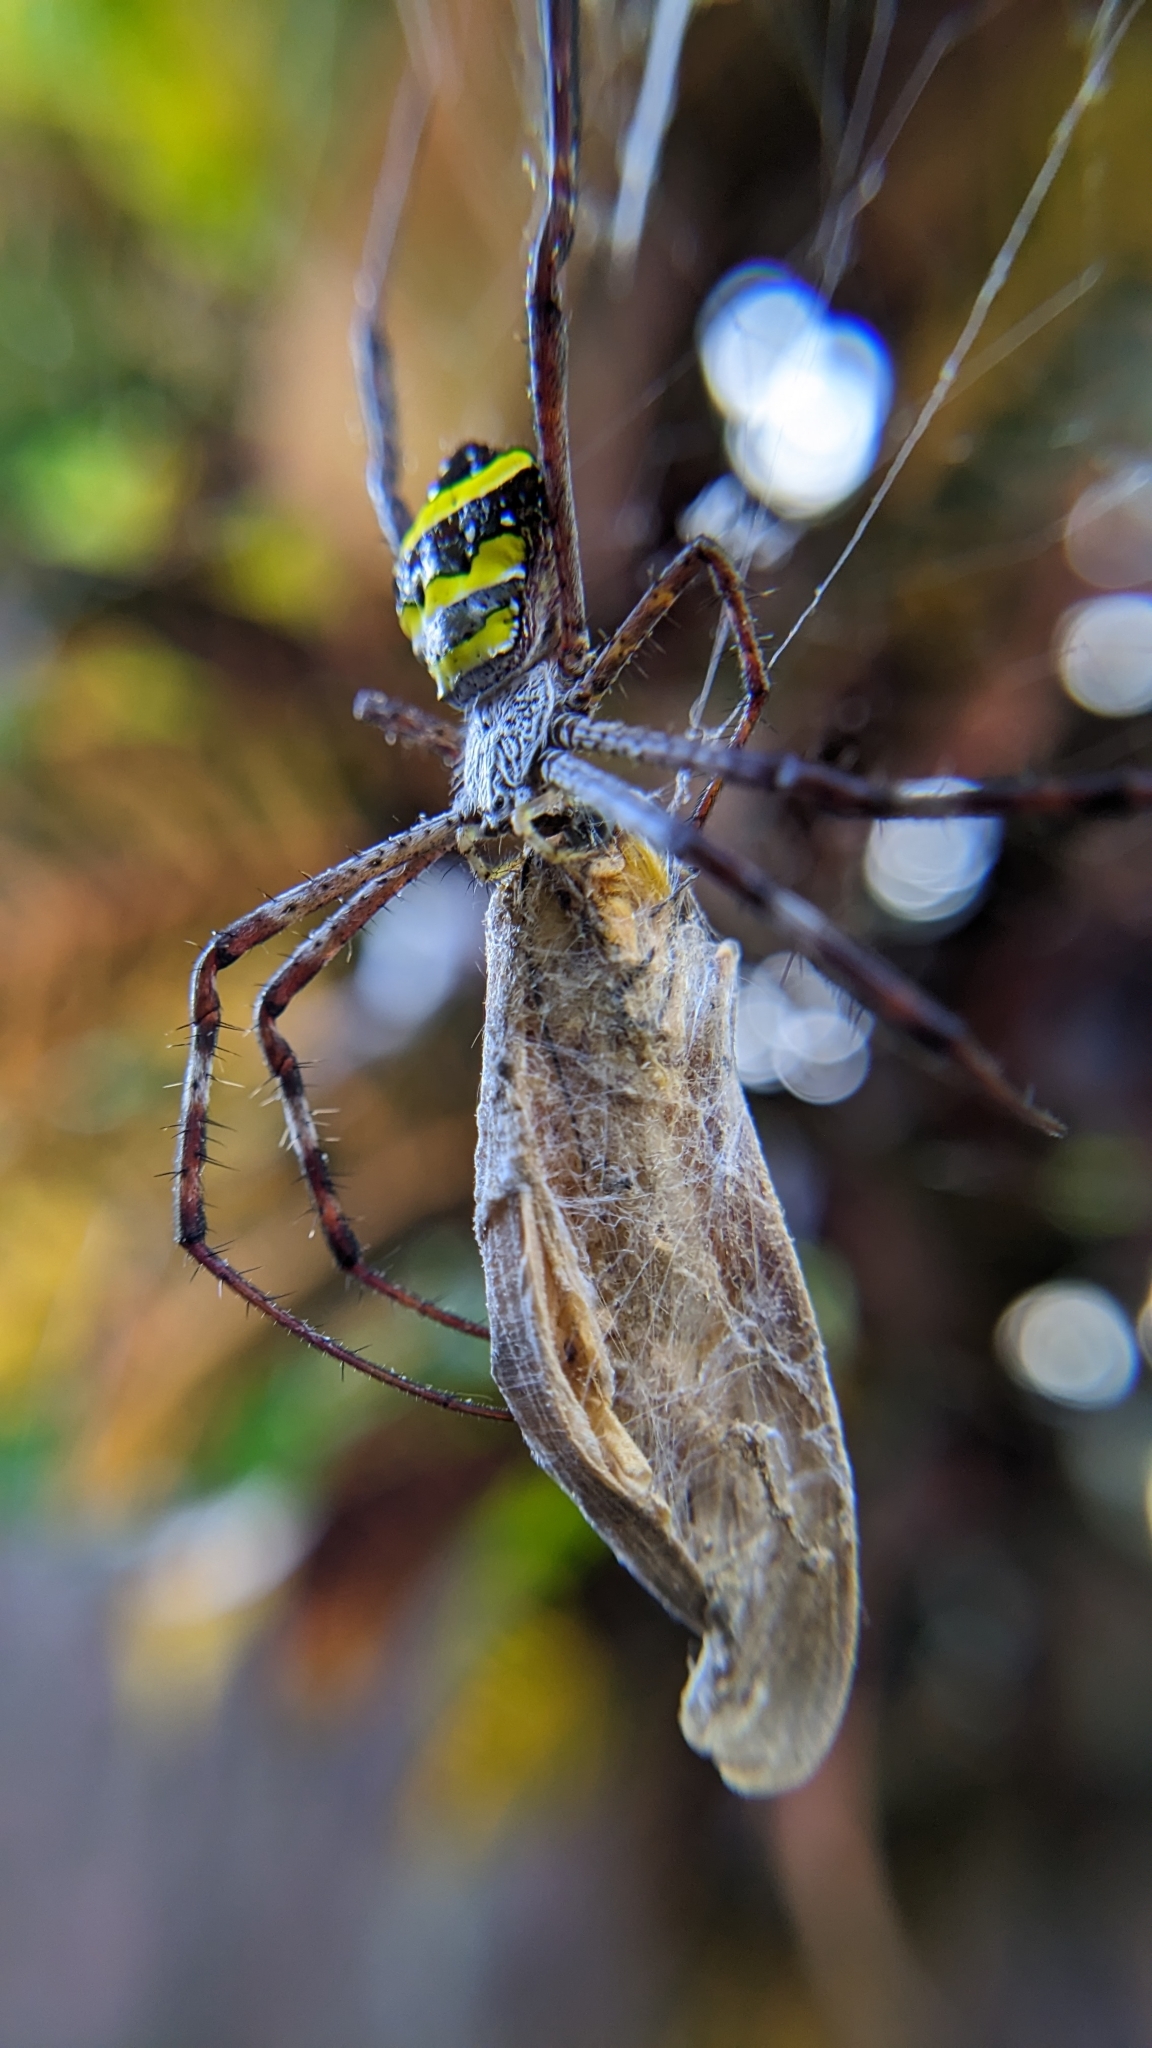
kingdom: Animalia
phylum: Arthropoda
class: Arachnida
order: Araneae
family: Araneidae
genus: Argiope
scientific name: Argiope taprobanica
